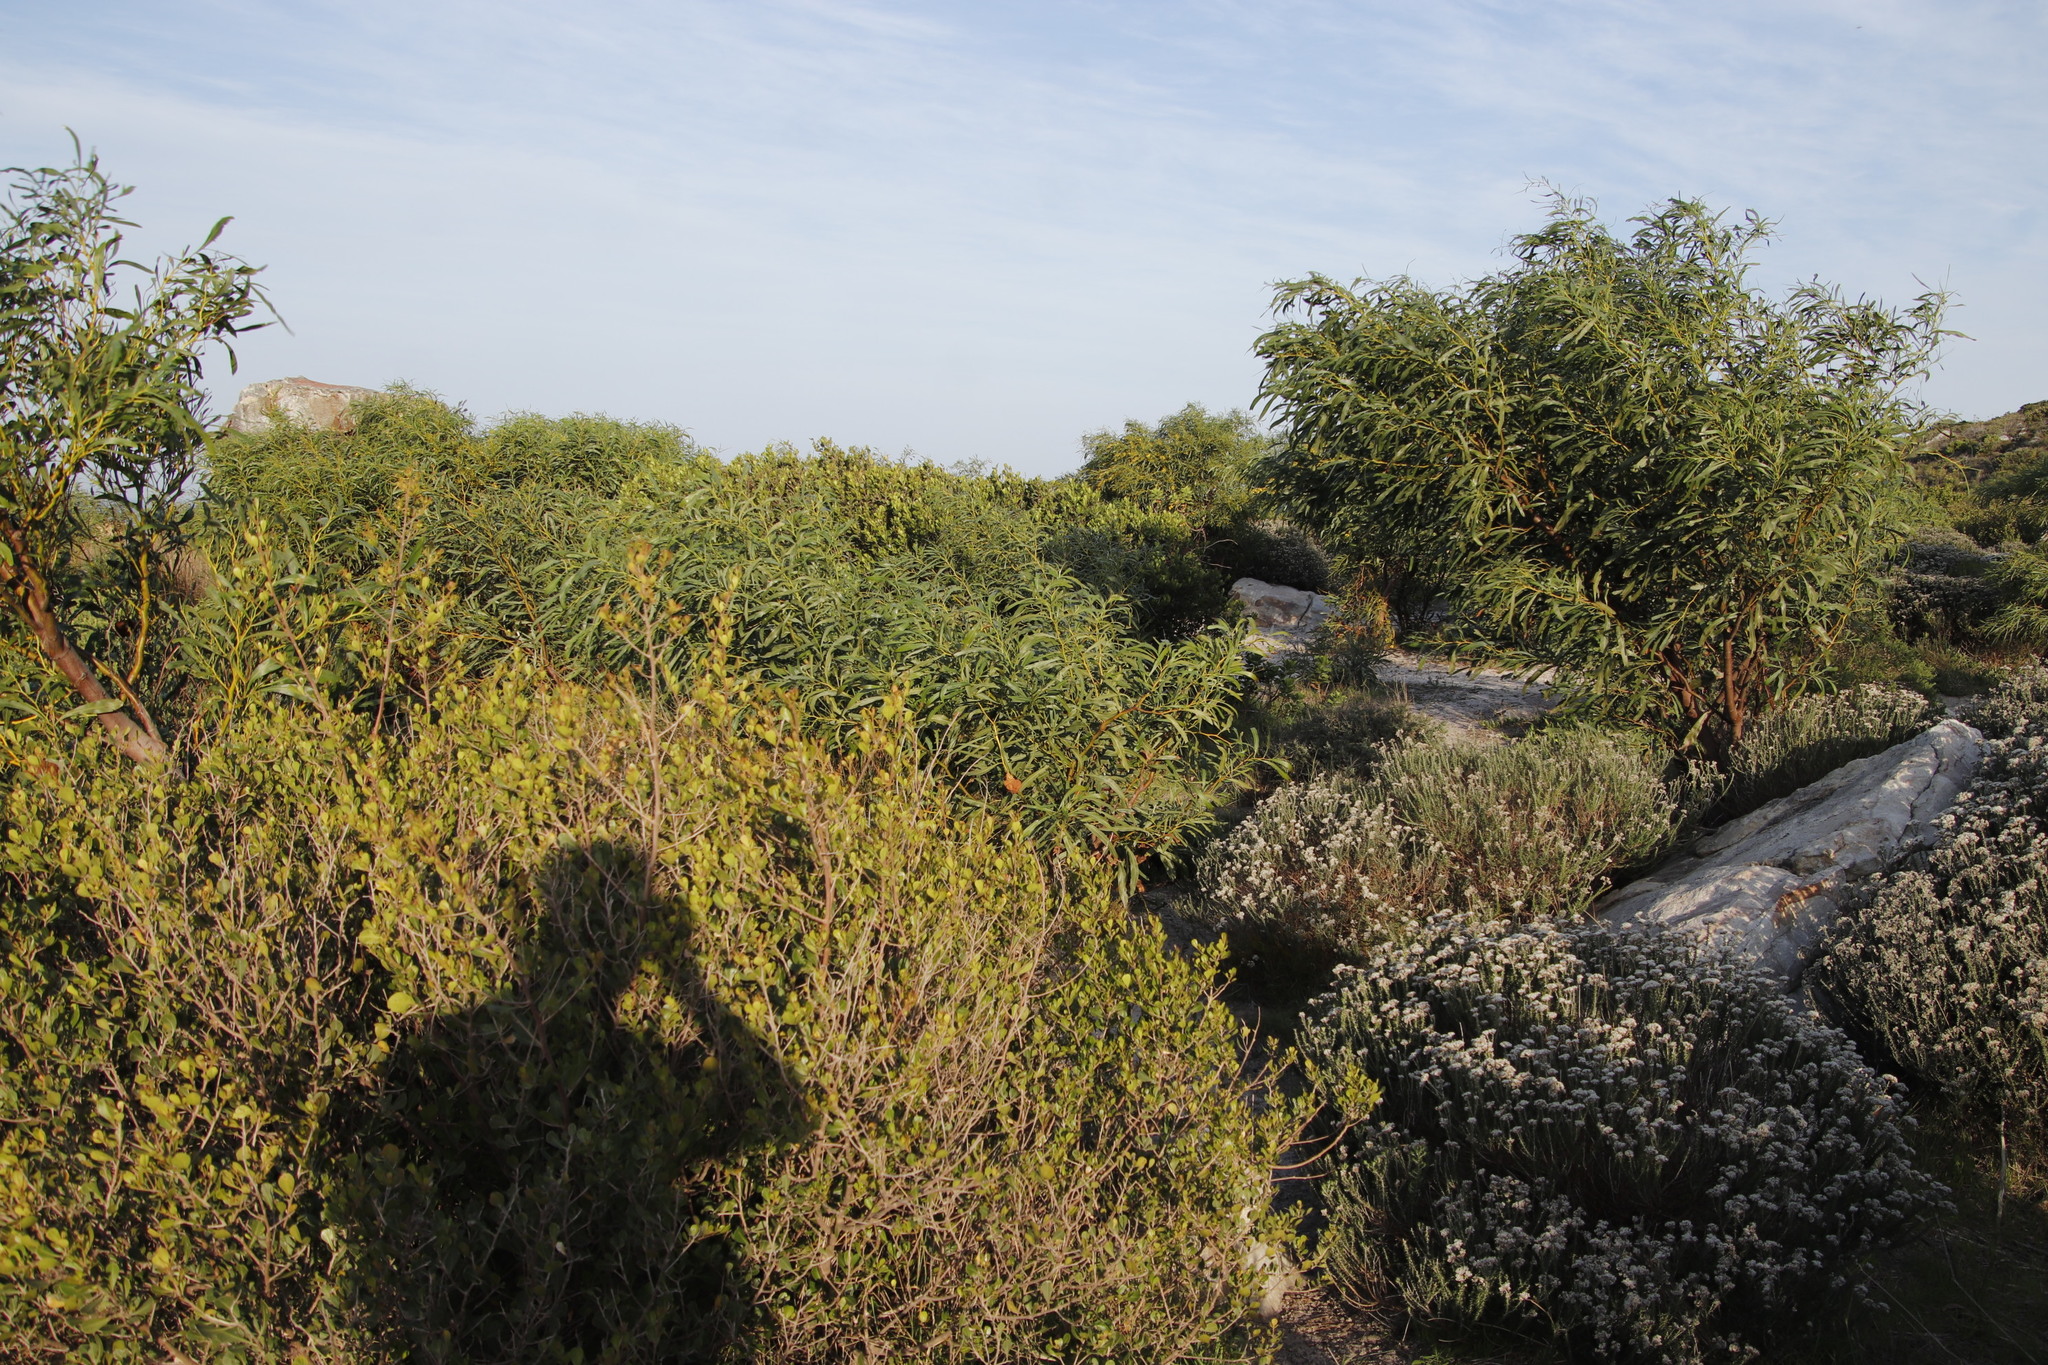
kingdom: Plantae
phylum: Tracheophyta
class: Magnoliopsida
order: Fabales
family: Fabaceae
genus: Acacia
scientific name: Acacia saligna
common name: Orange wattle
